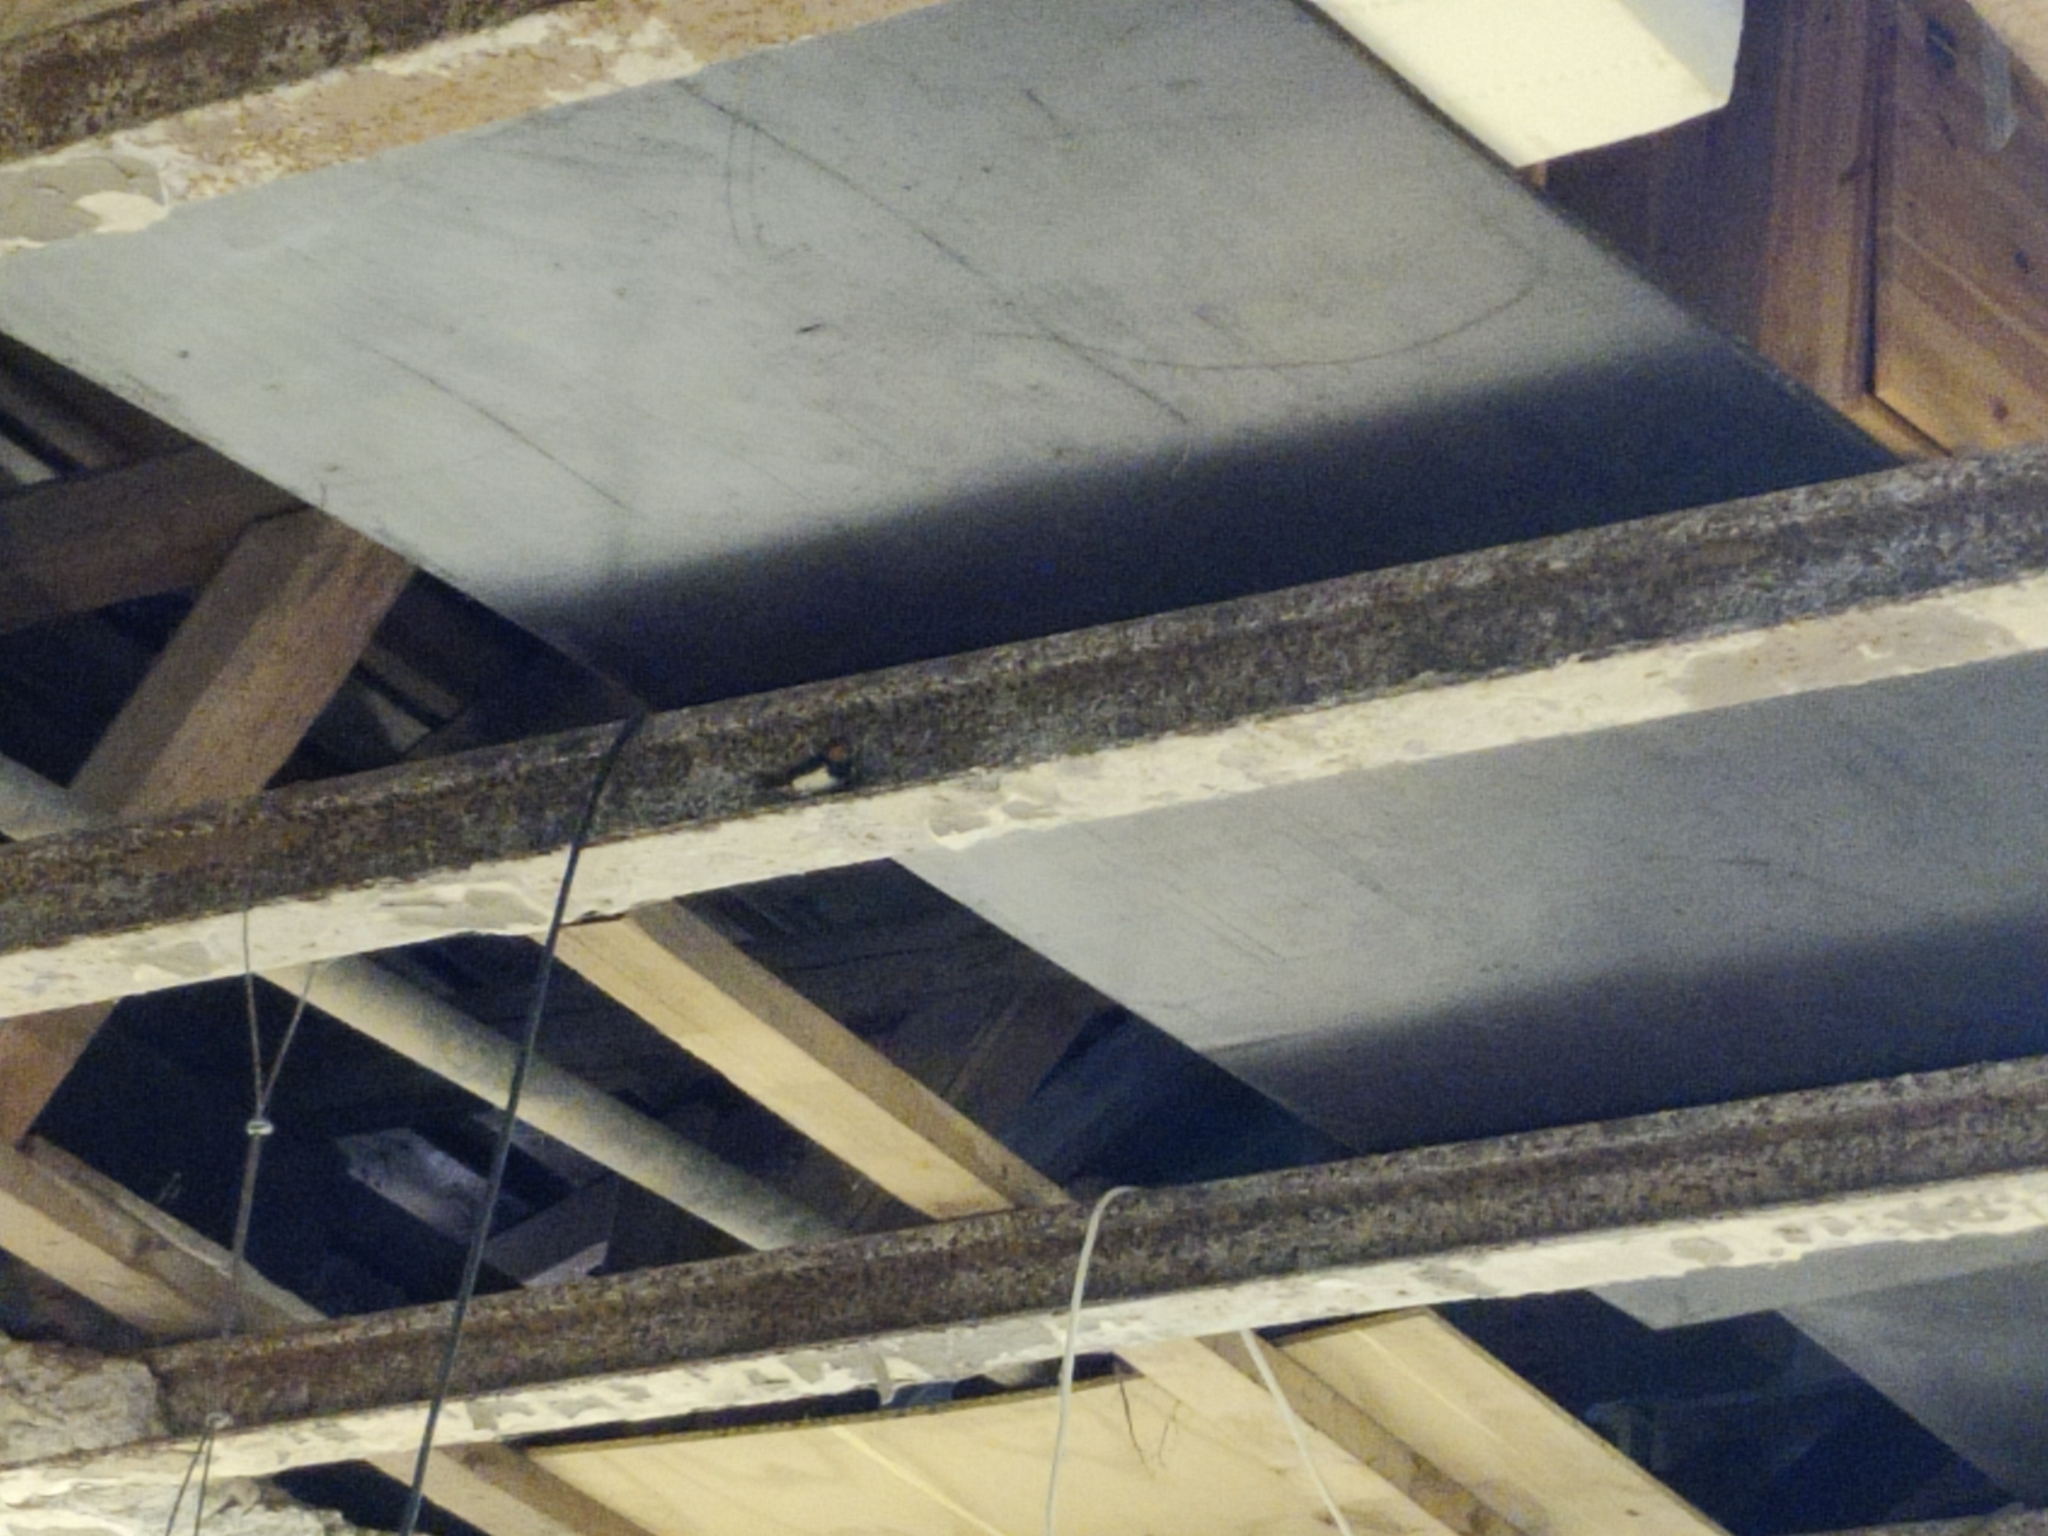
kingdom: Animalia
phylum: Chordata
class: Aves
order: Passeriformes
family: Hirundinidae
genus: Hirundo
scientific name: Hirundo rustica
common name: Barn swallow
